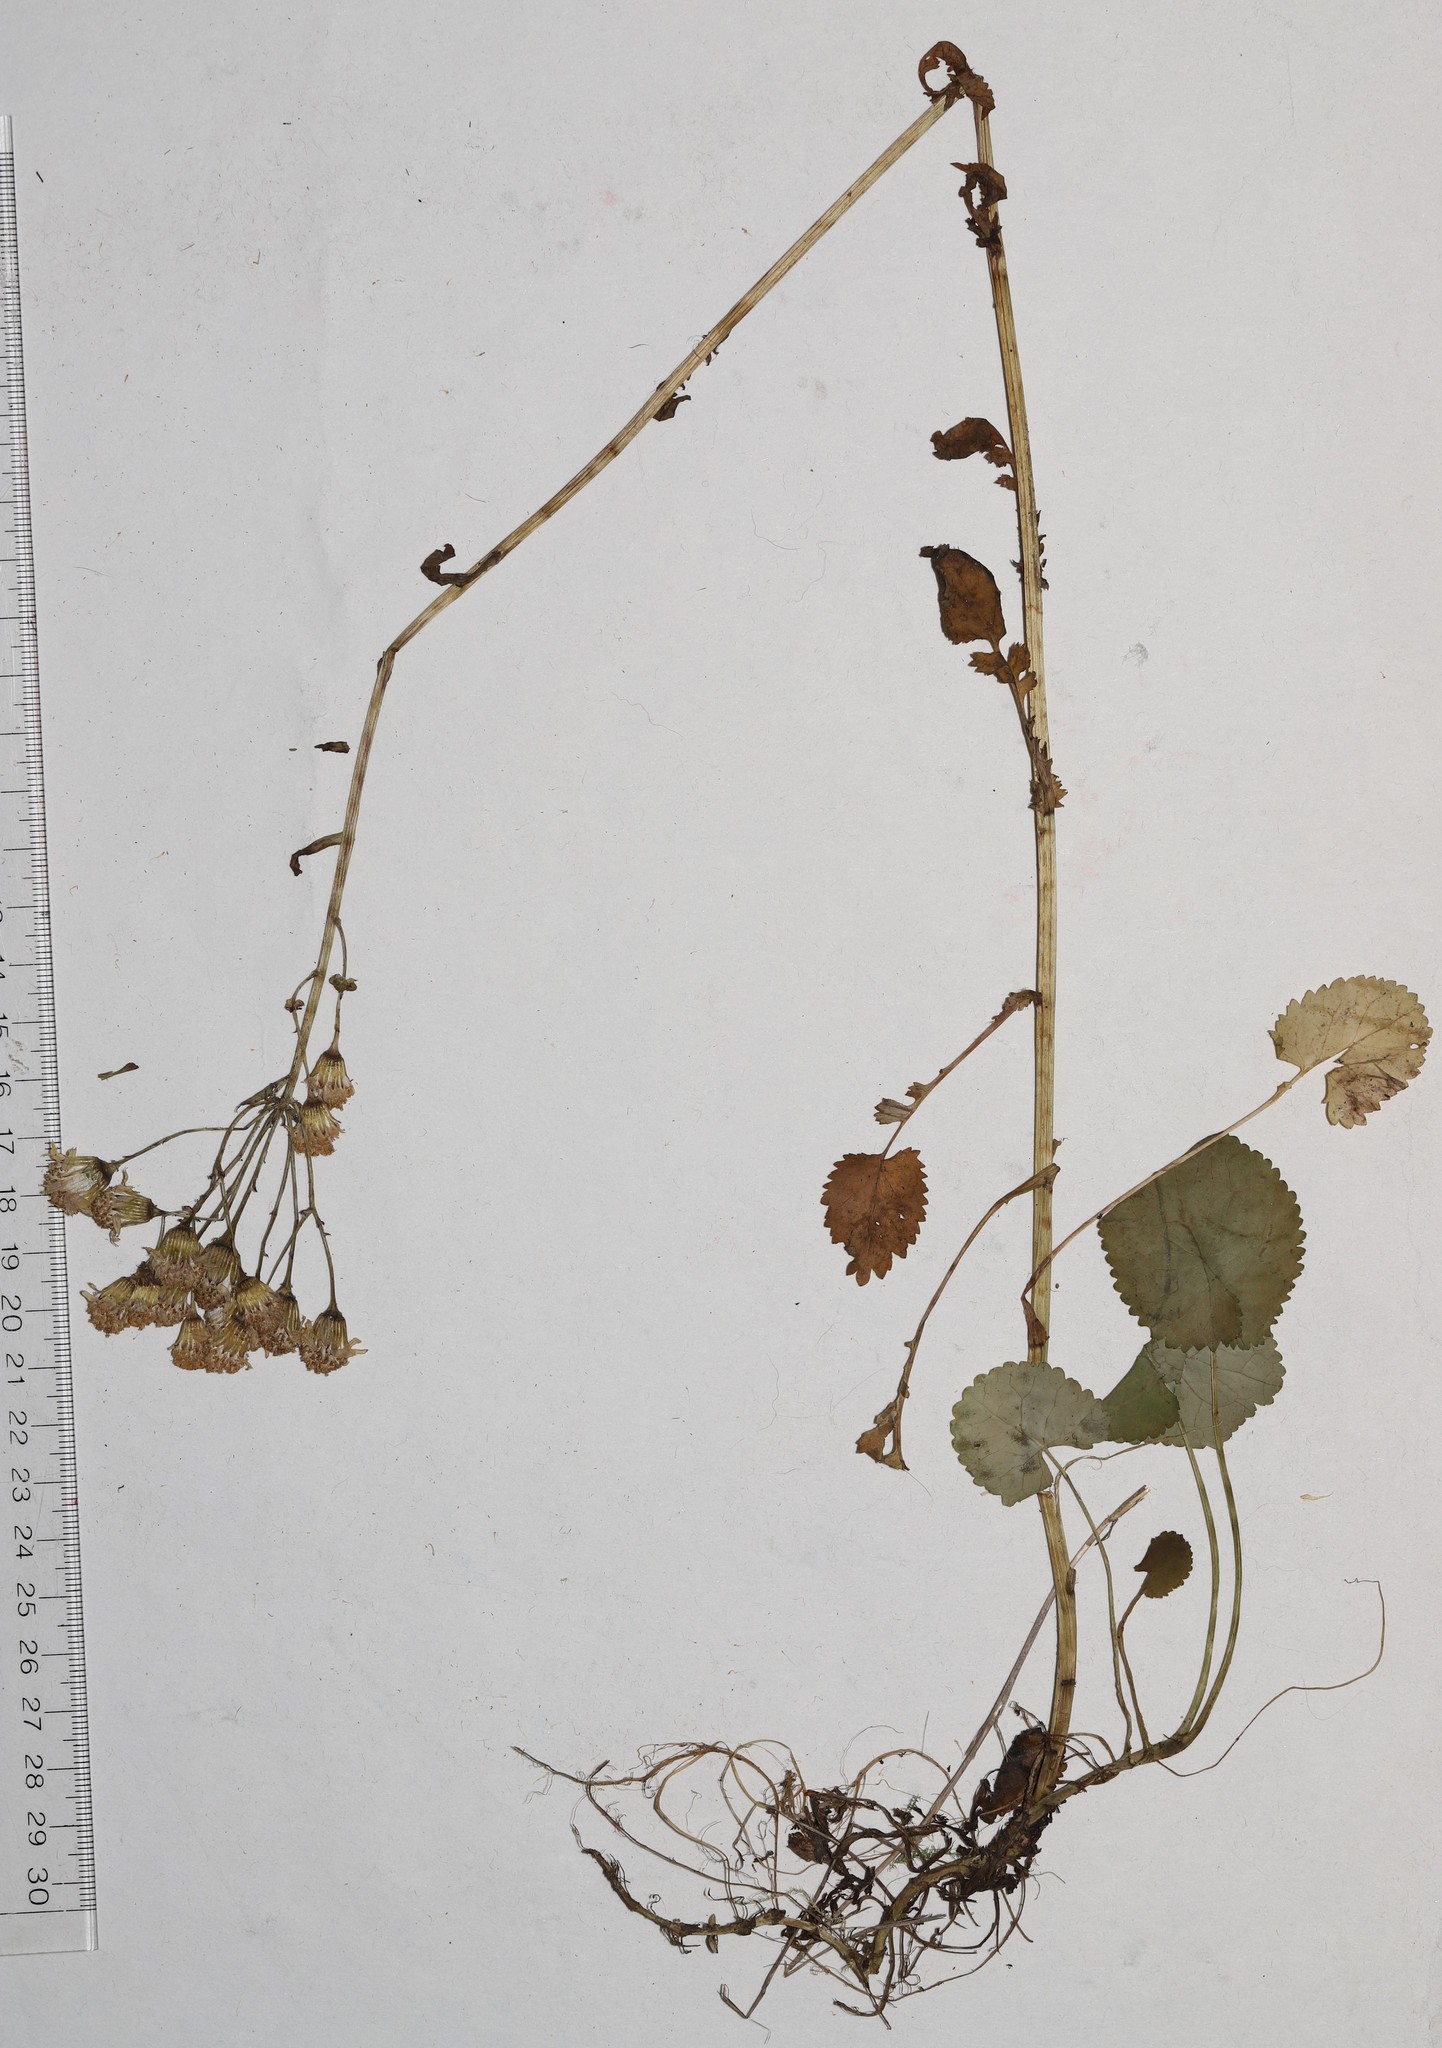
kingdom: Plantae
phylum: Tracheophyta
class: Magnoliopsida
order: Asterales
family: Asteraceae
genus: Packera
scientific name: Packera aurea
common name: Golden groundsel
